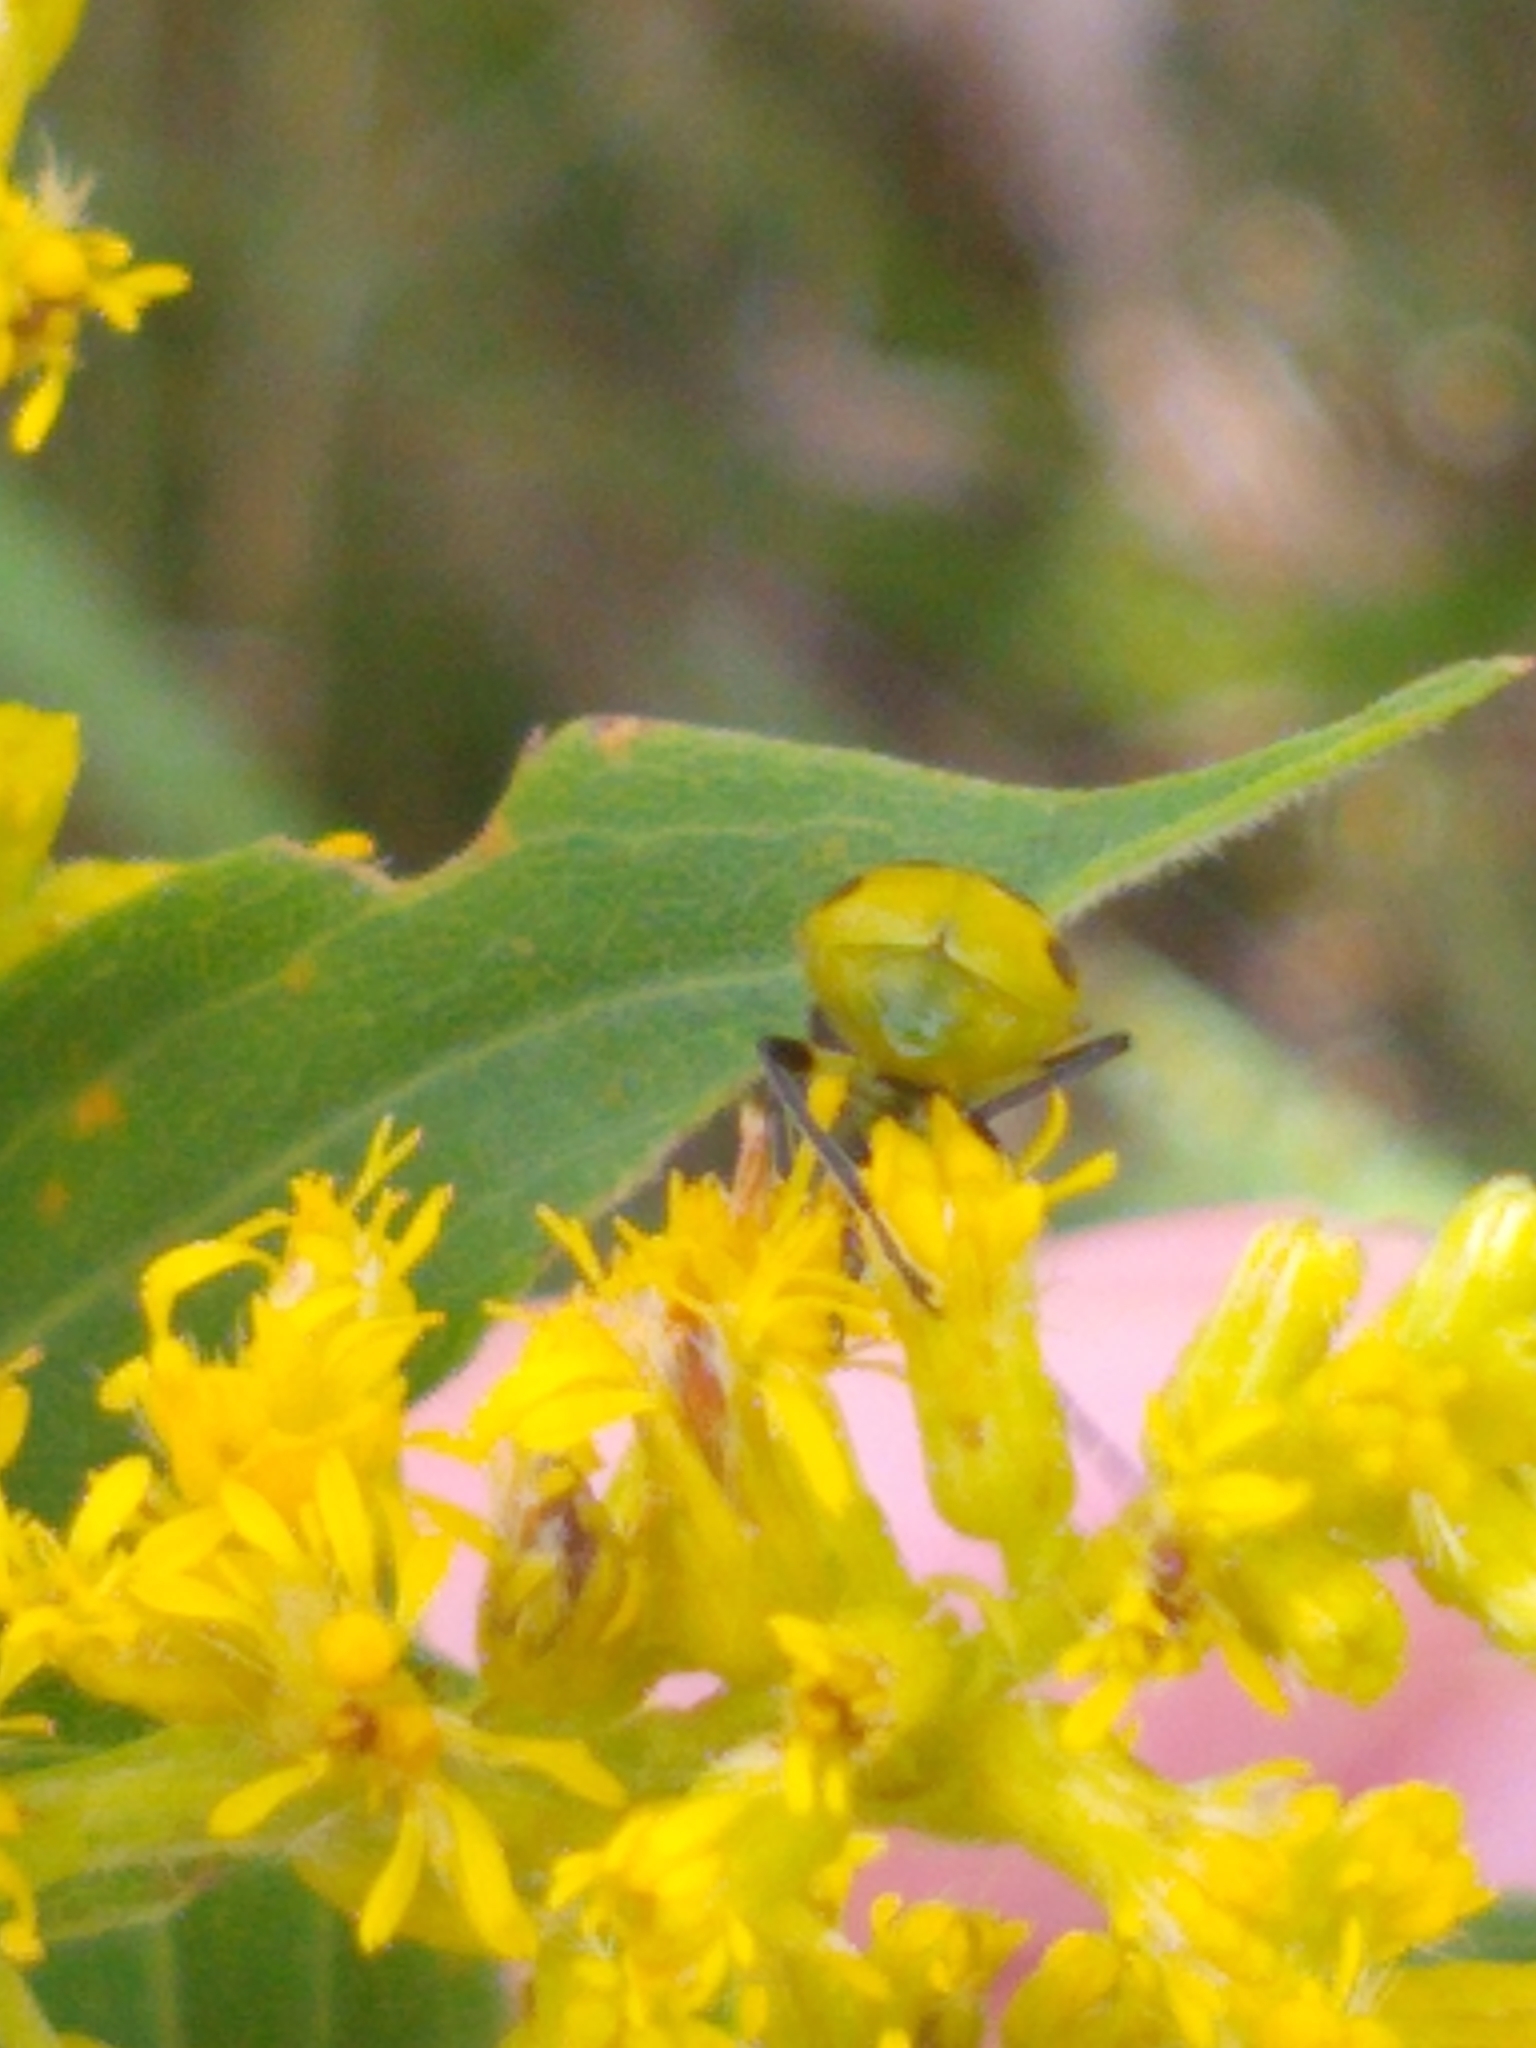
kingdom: Animalia
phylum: Arthropoda
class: Insecta
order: Coleoptera
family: Chrysomelidae
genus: Diabrotica
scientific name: Diabrotica undecimpunctata
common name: Spotted cucumber beetle
